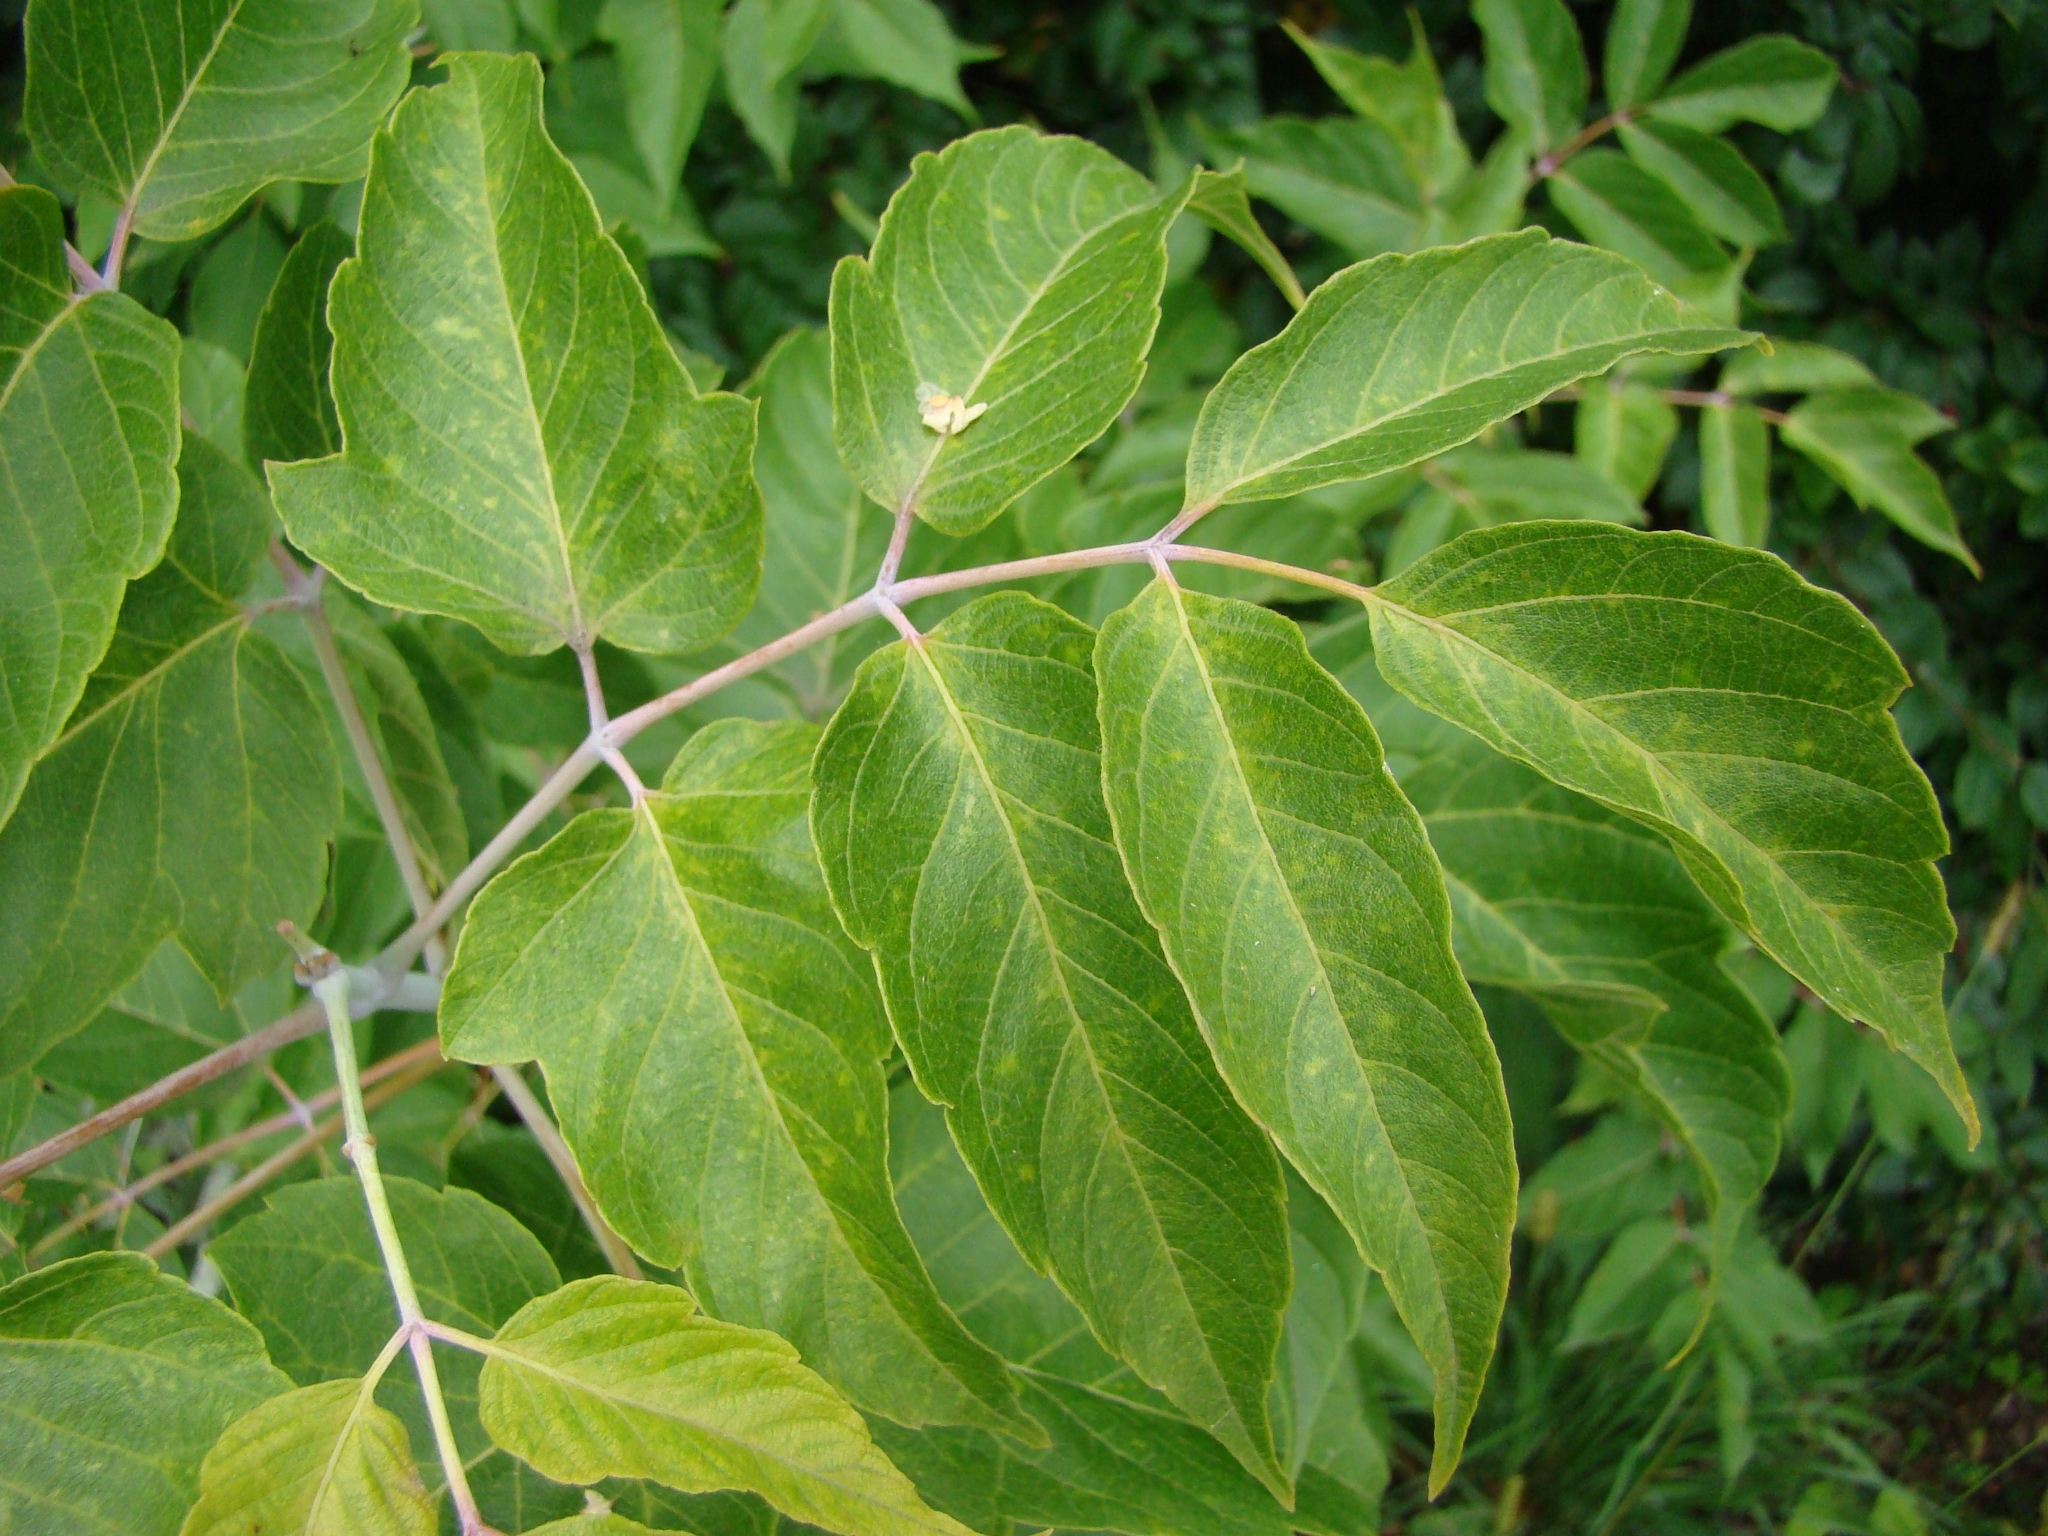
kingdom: Plantae
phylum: Tracheophyta
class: Magnoliopsida
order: Sapindales
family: Sapindaceae
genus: Acer
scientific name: Acer negundo
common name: Ashleaf maple
